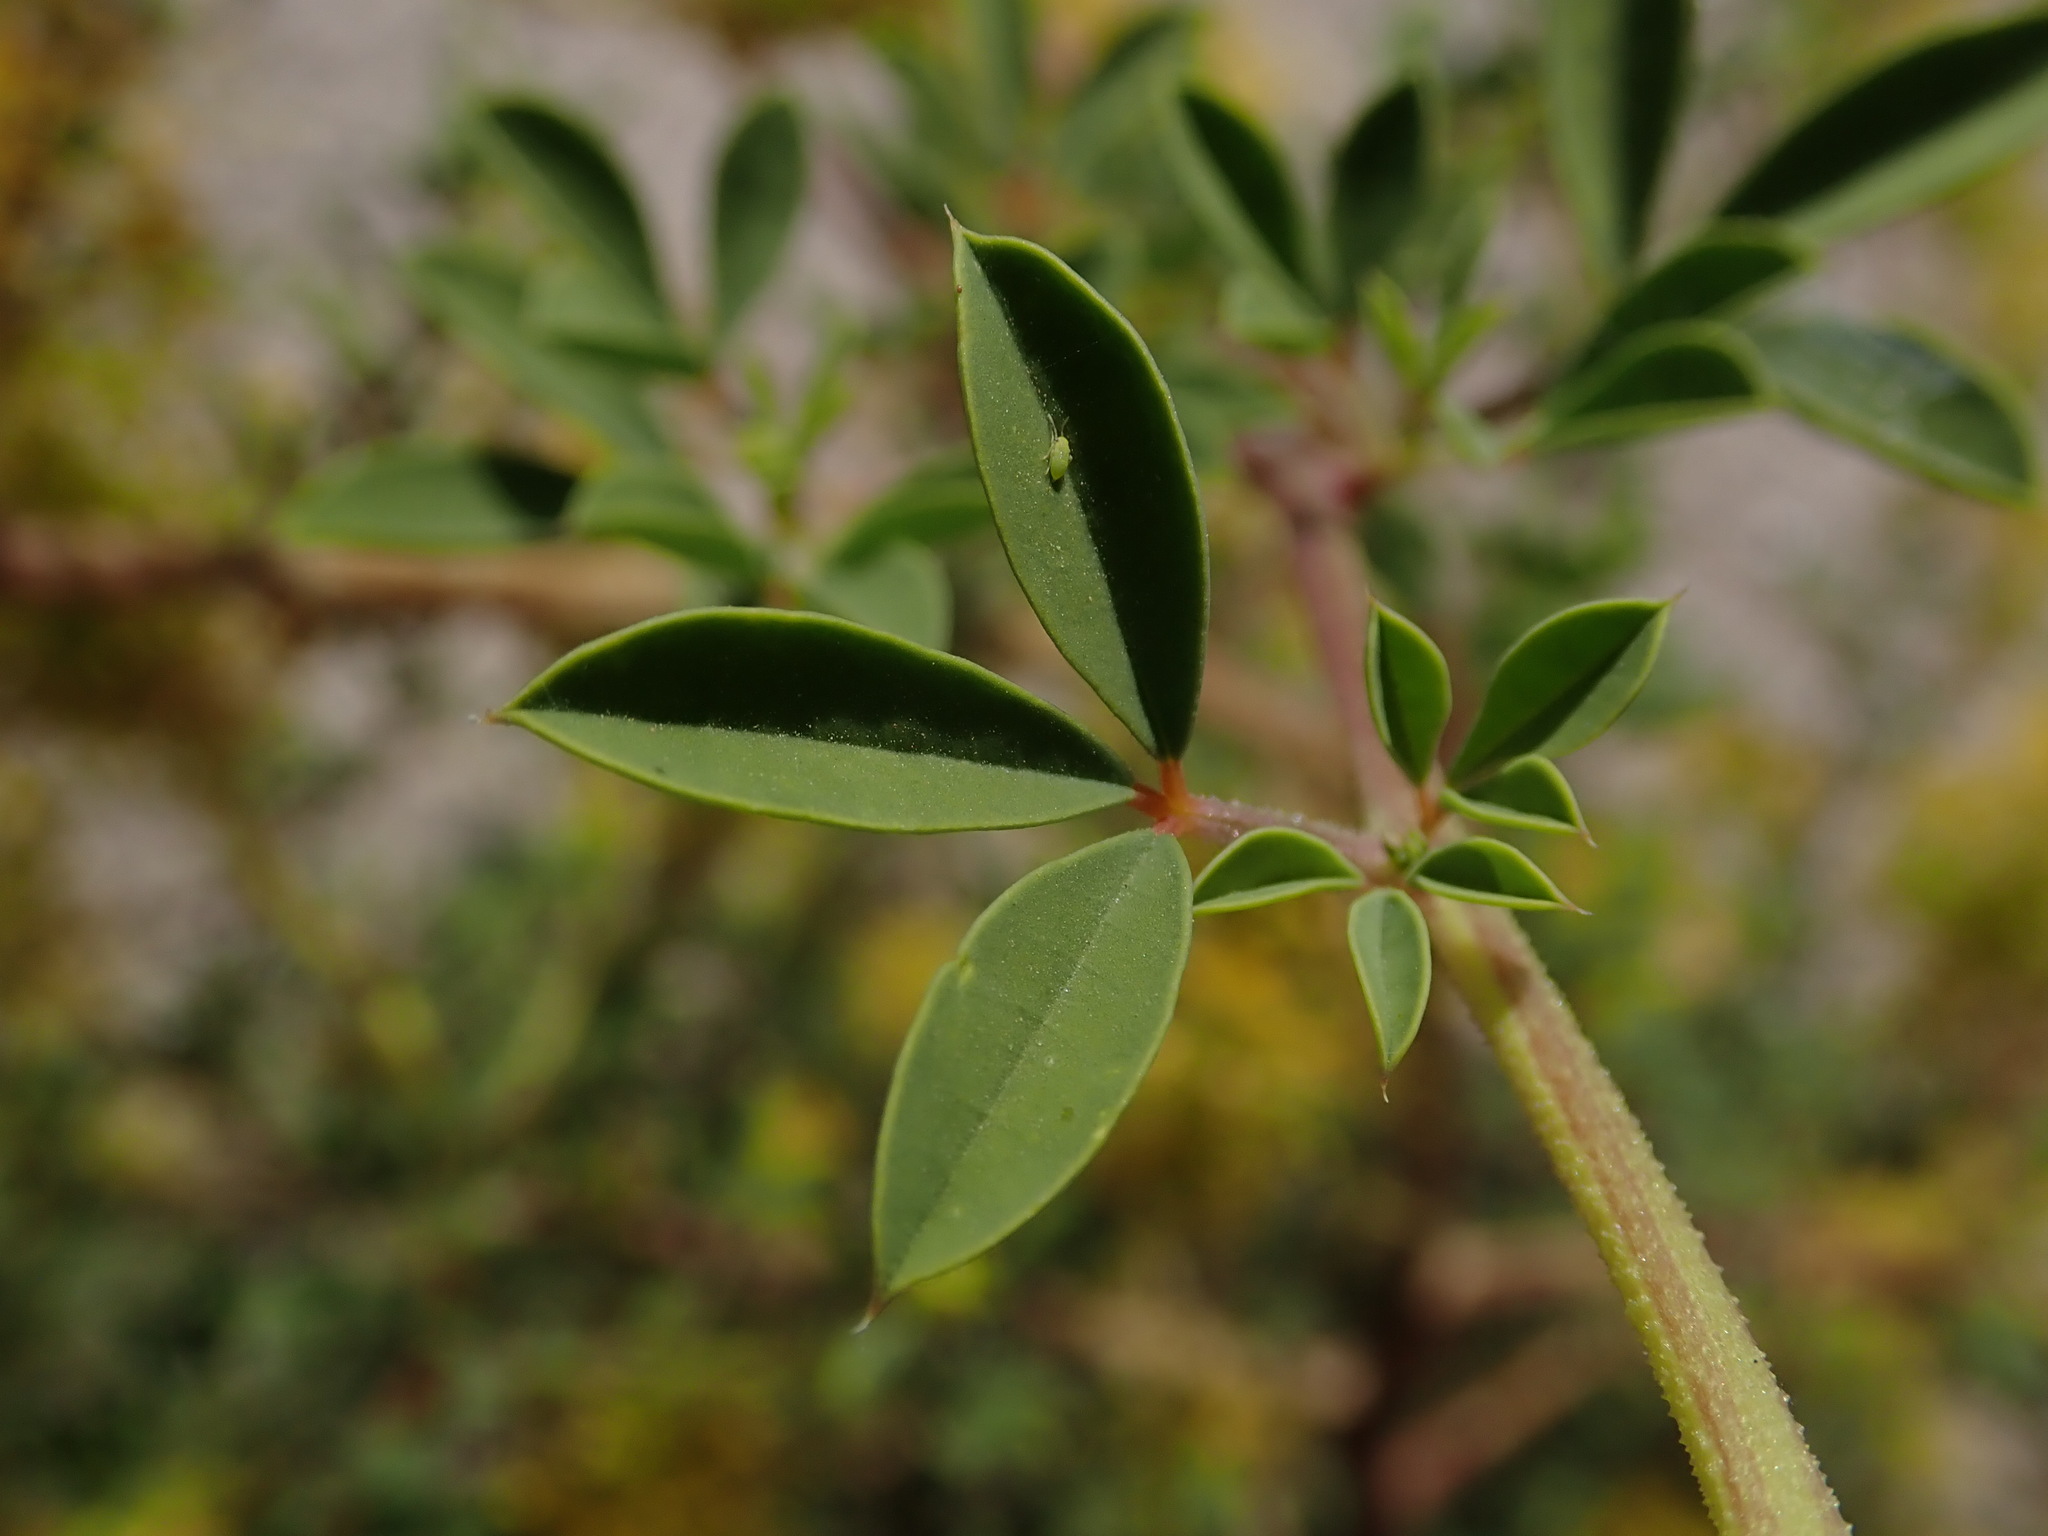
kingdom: Plantae
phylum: Tracheophyta
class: Magnoliopsida
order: Brassicales
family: Cleomaceae
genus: Cleomella
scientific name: Cleomella refracta
